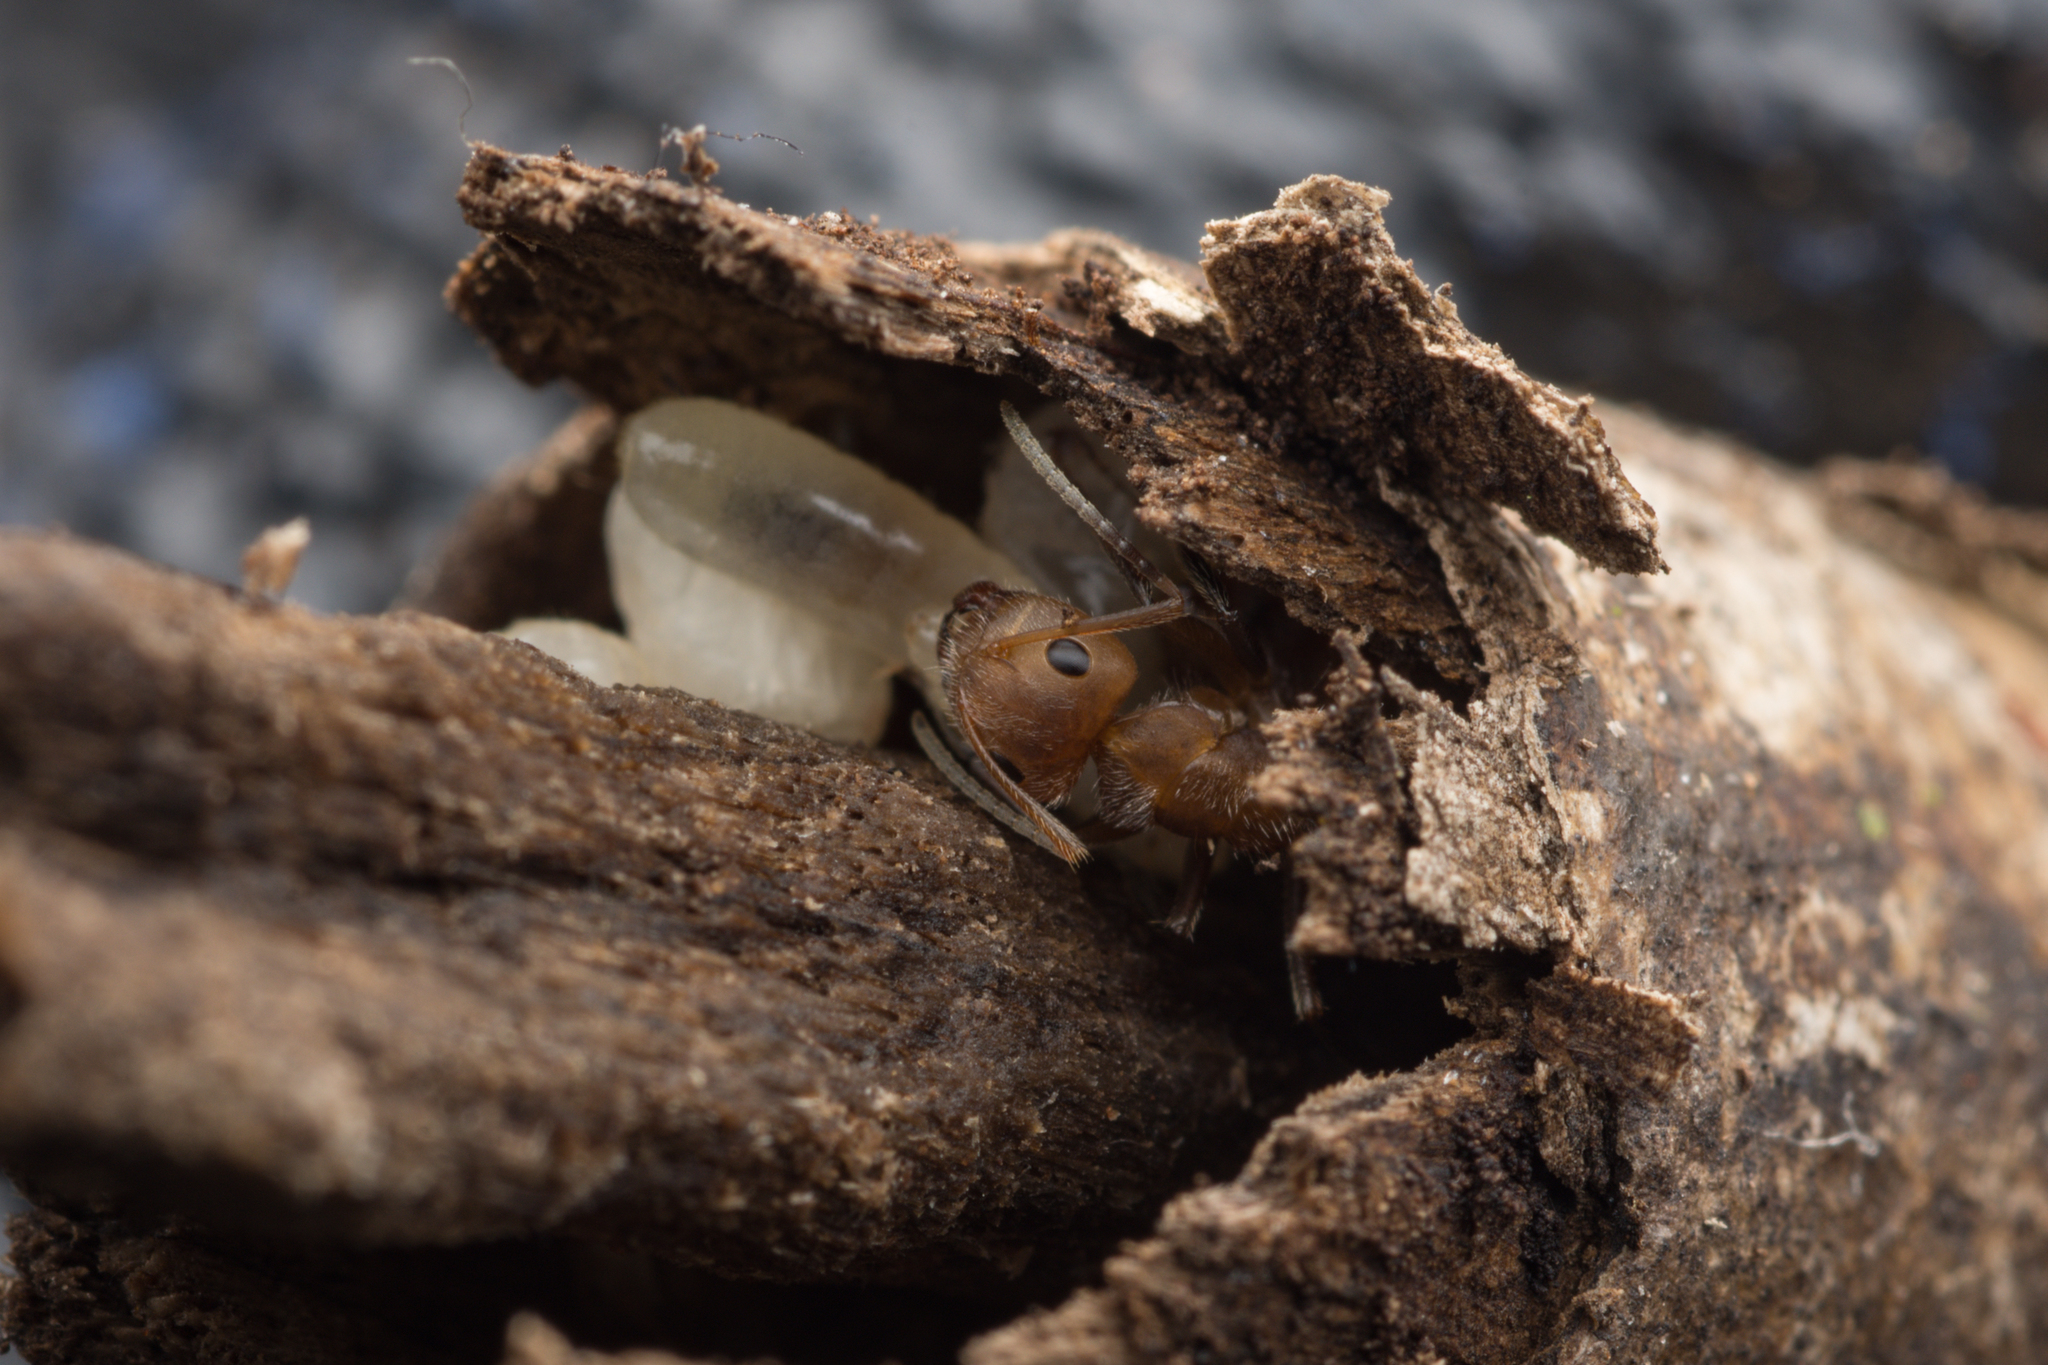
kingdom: Animalia
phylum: Arthropoda
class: Insecta
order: Hymenoptera
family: Formicidae
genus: Camponotus
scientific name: Camponotus pittieri
